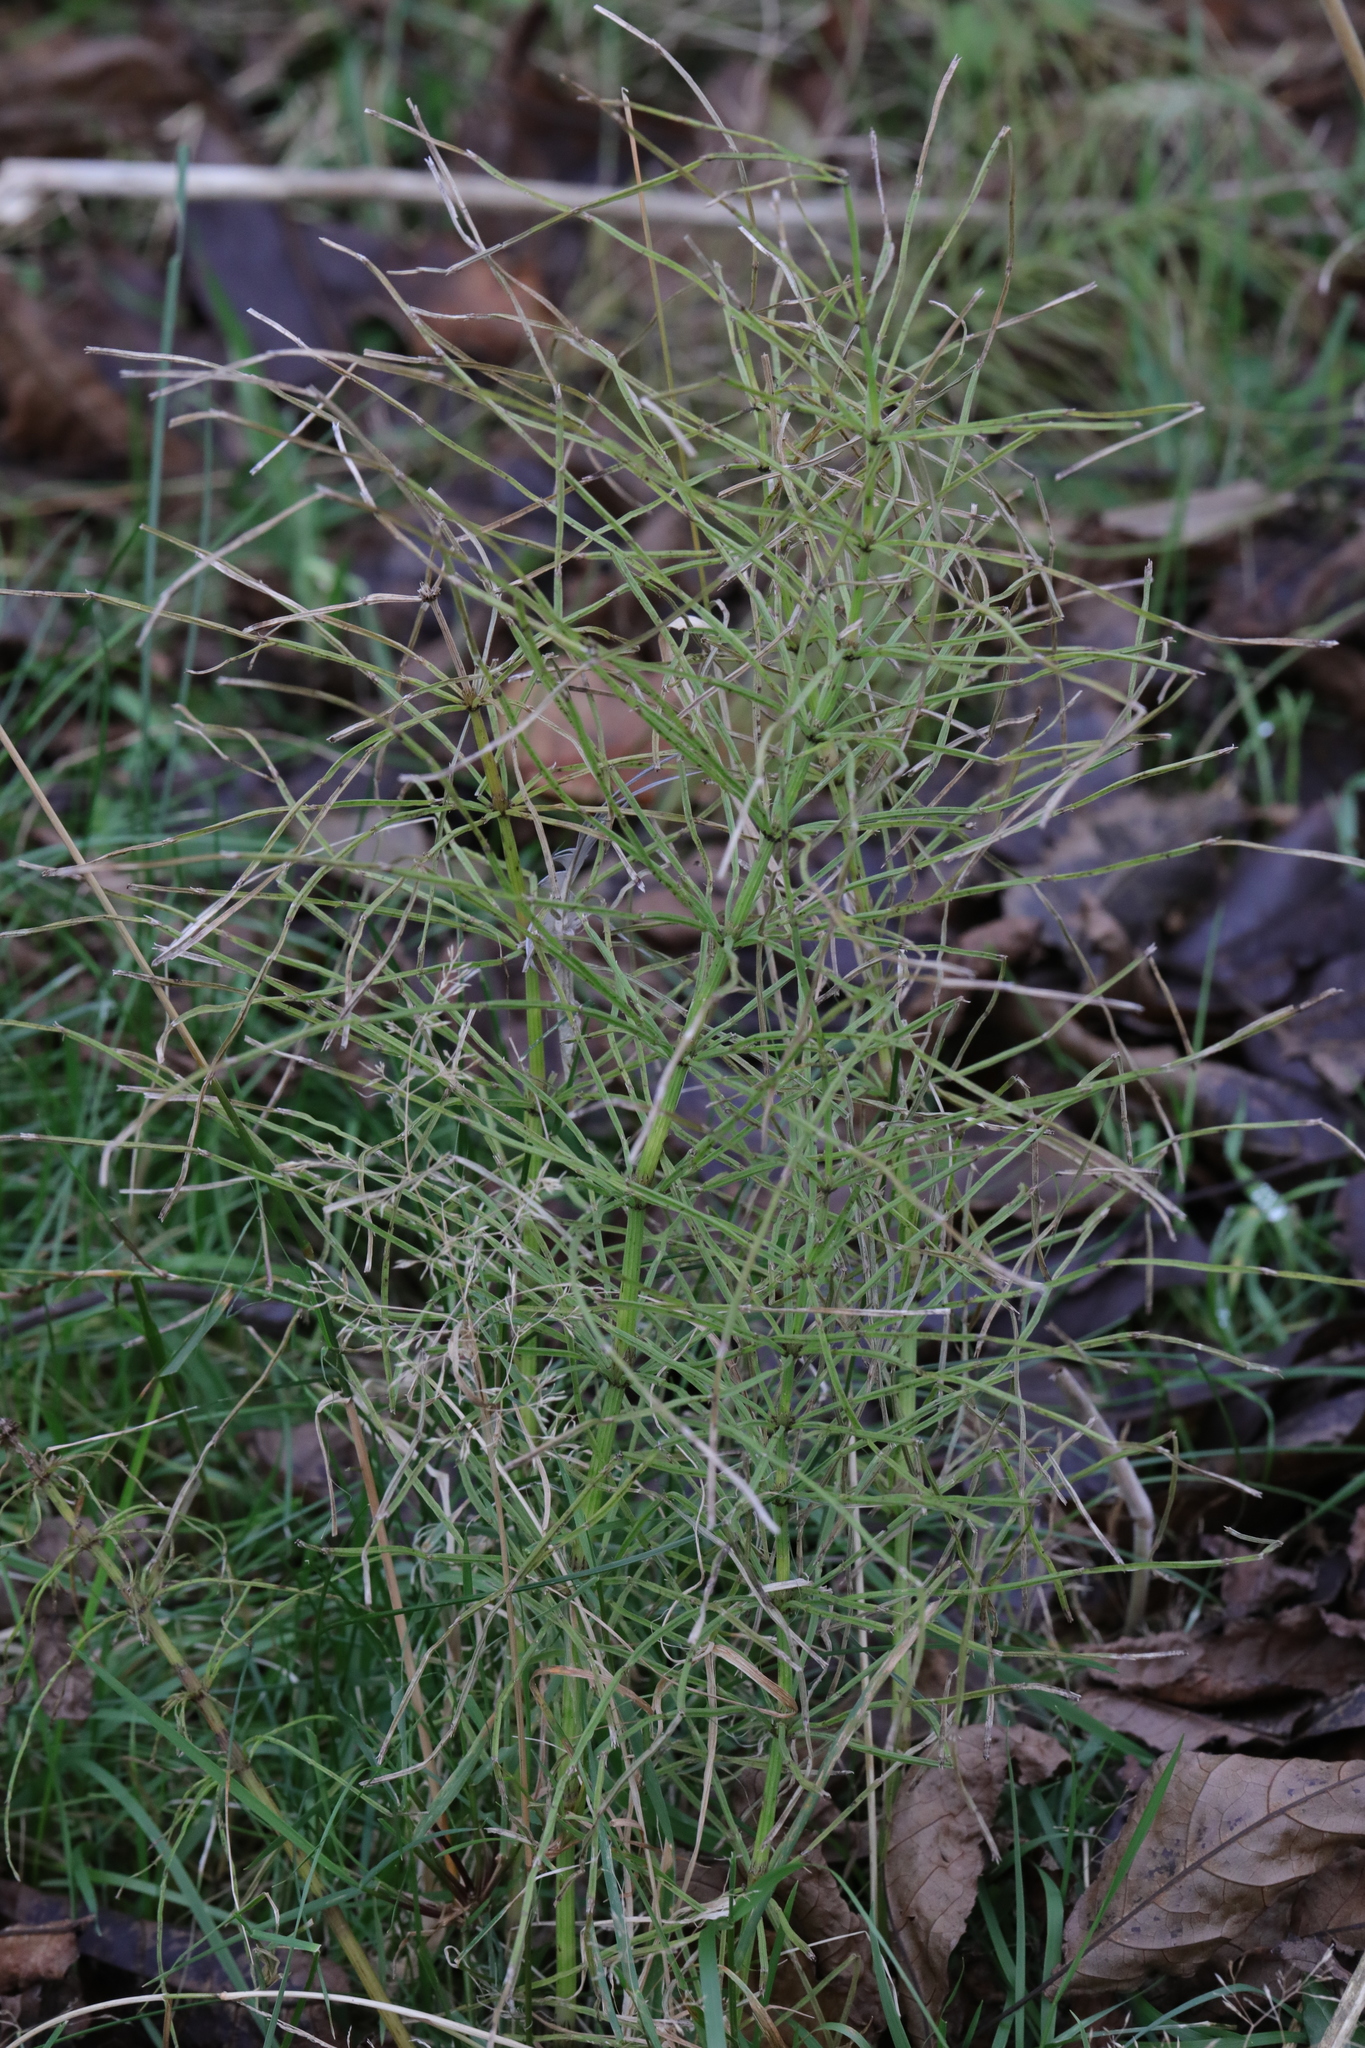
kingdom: Plantae
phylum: Tracheophyta
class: Polypodiopsida
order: Equisetales
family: Equisetaceae
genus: Equisetum
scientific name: Equisetum arvense
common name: Field horsetail
